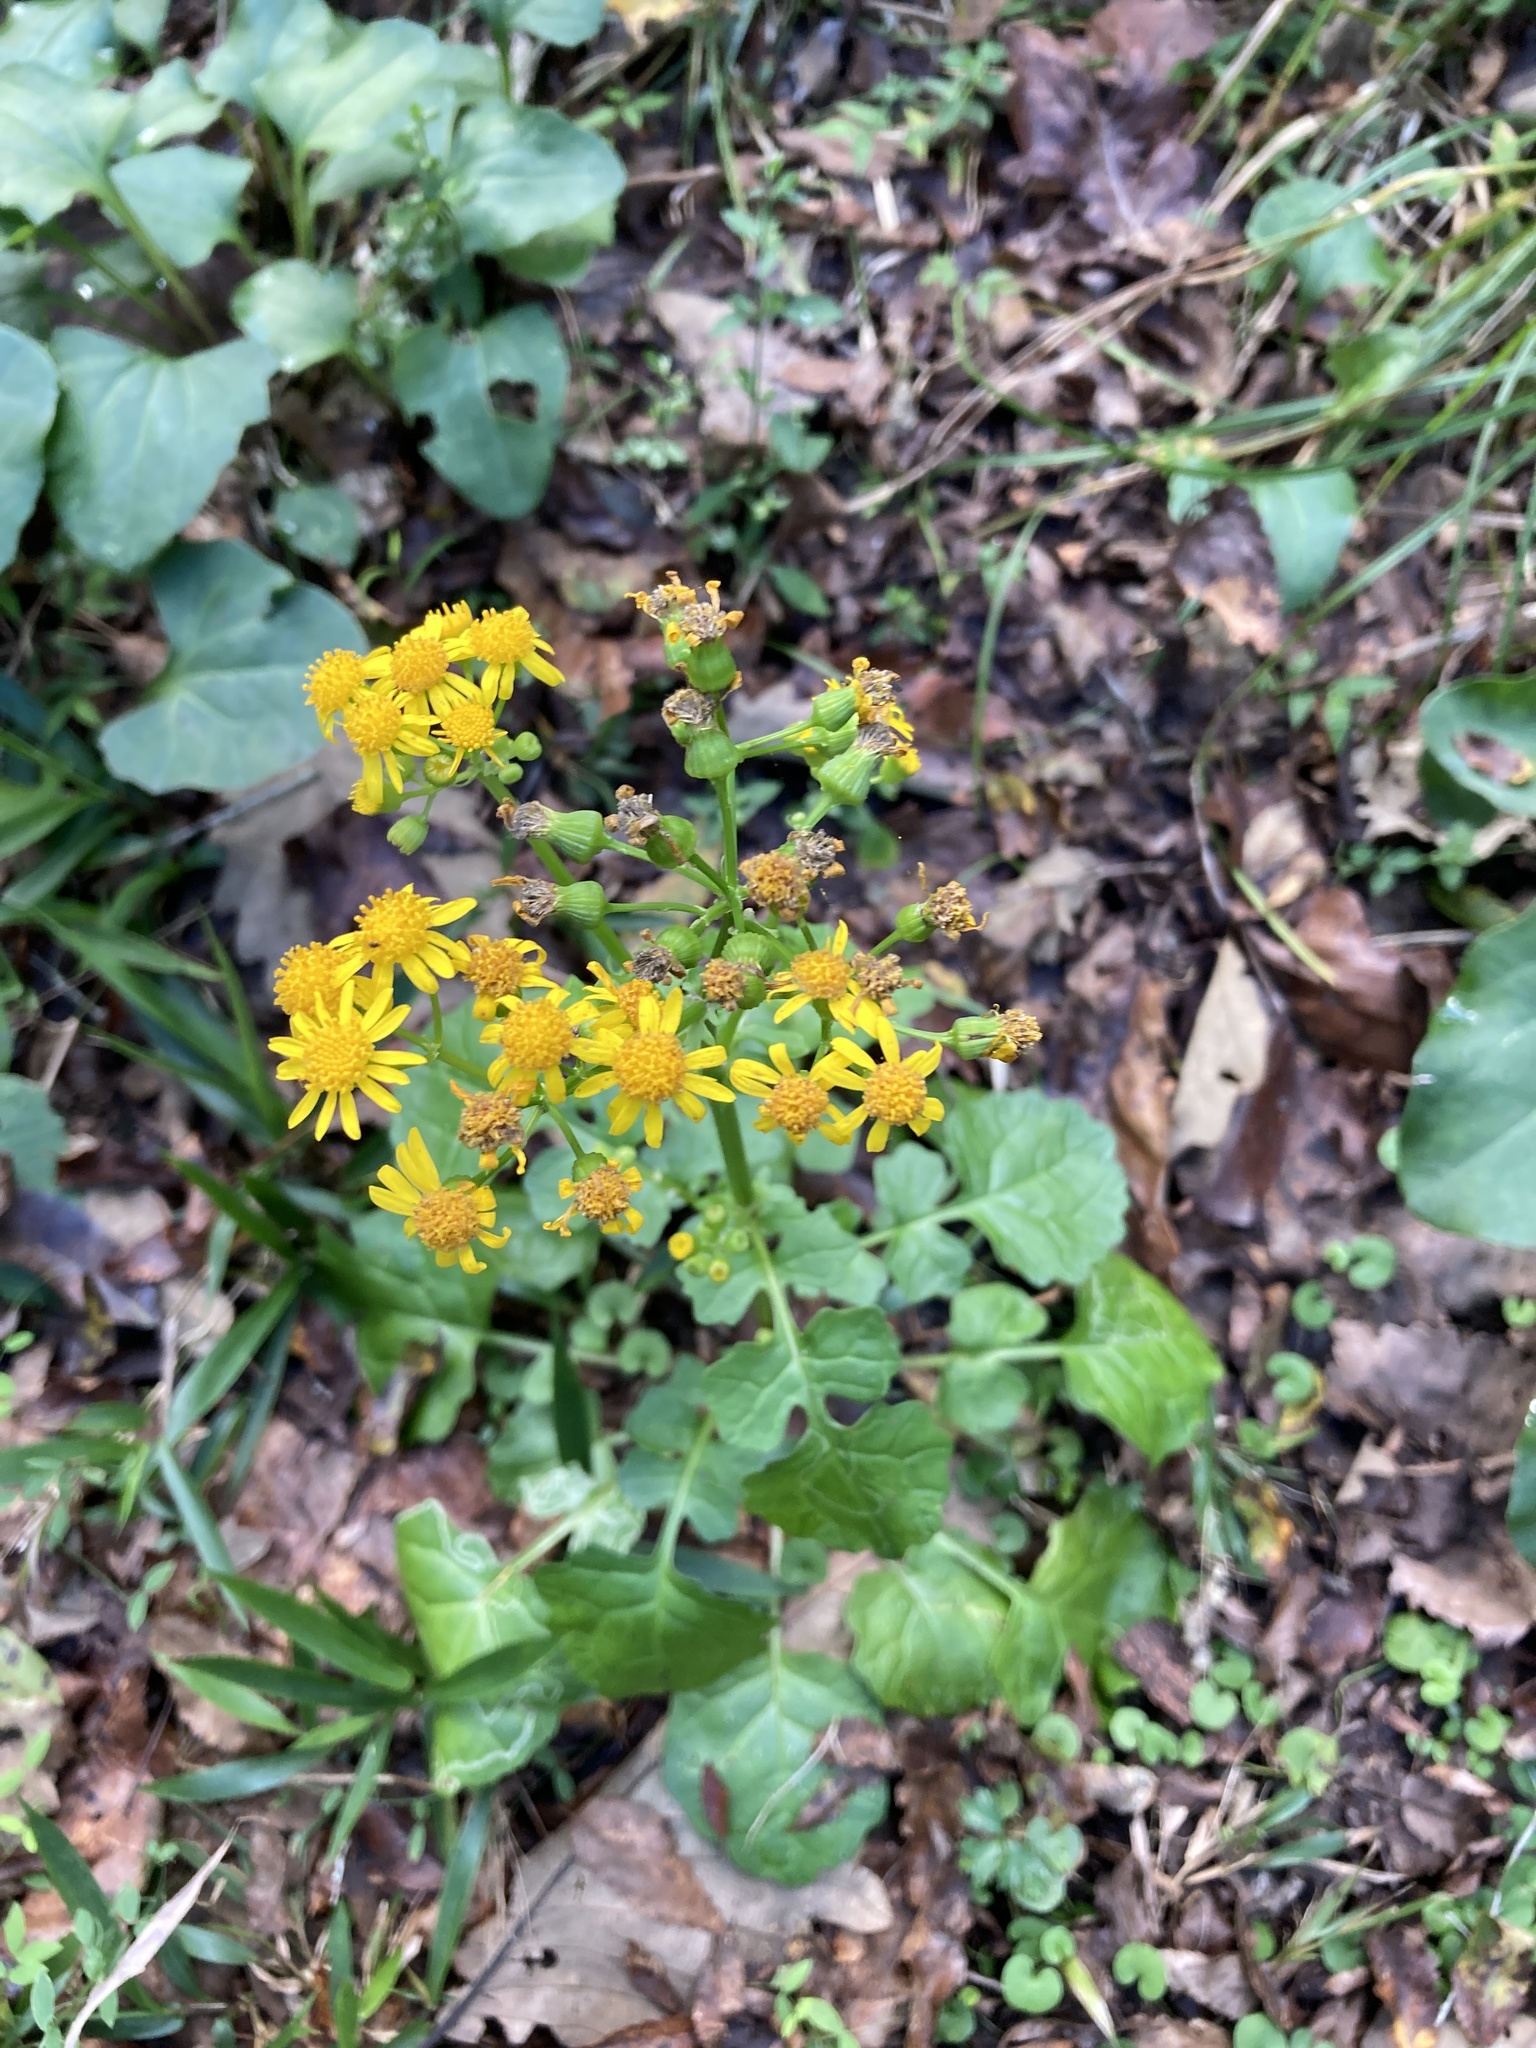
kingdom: Plantae
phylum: Tracheophyta
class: Magnoliopsida
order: Asterales
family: Asteraceae
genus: Packera
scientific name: Packera glabella
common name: Butterweed
